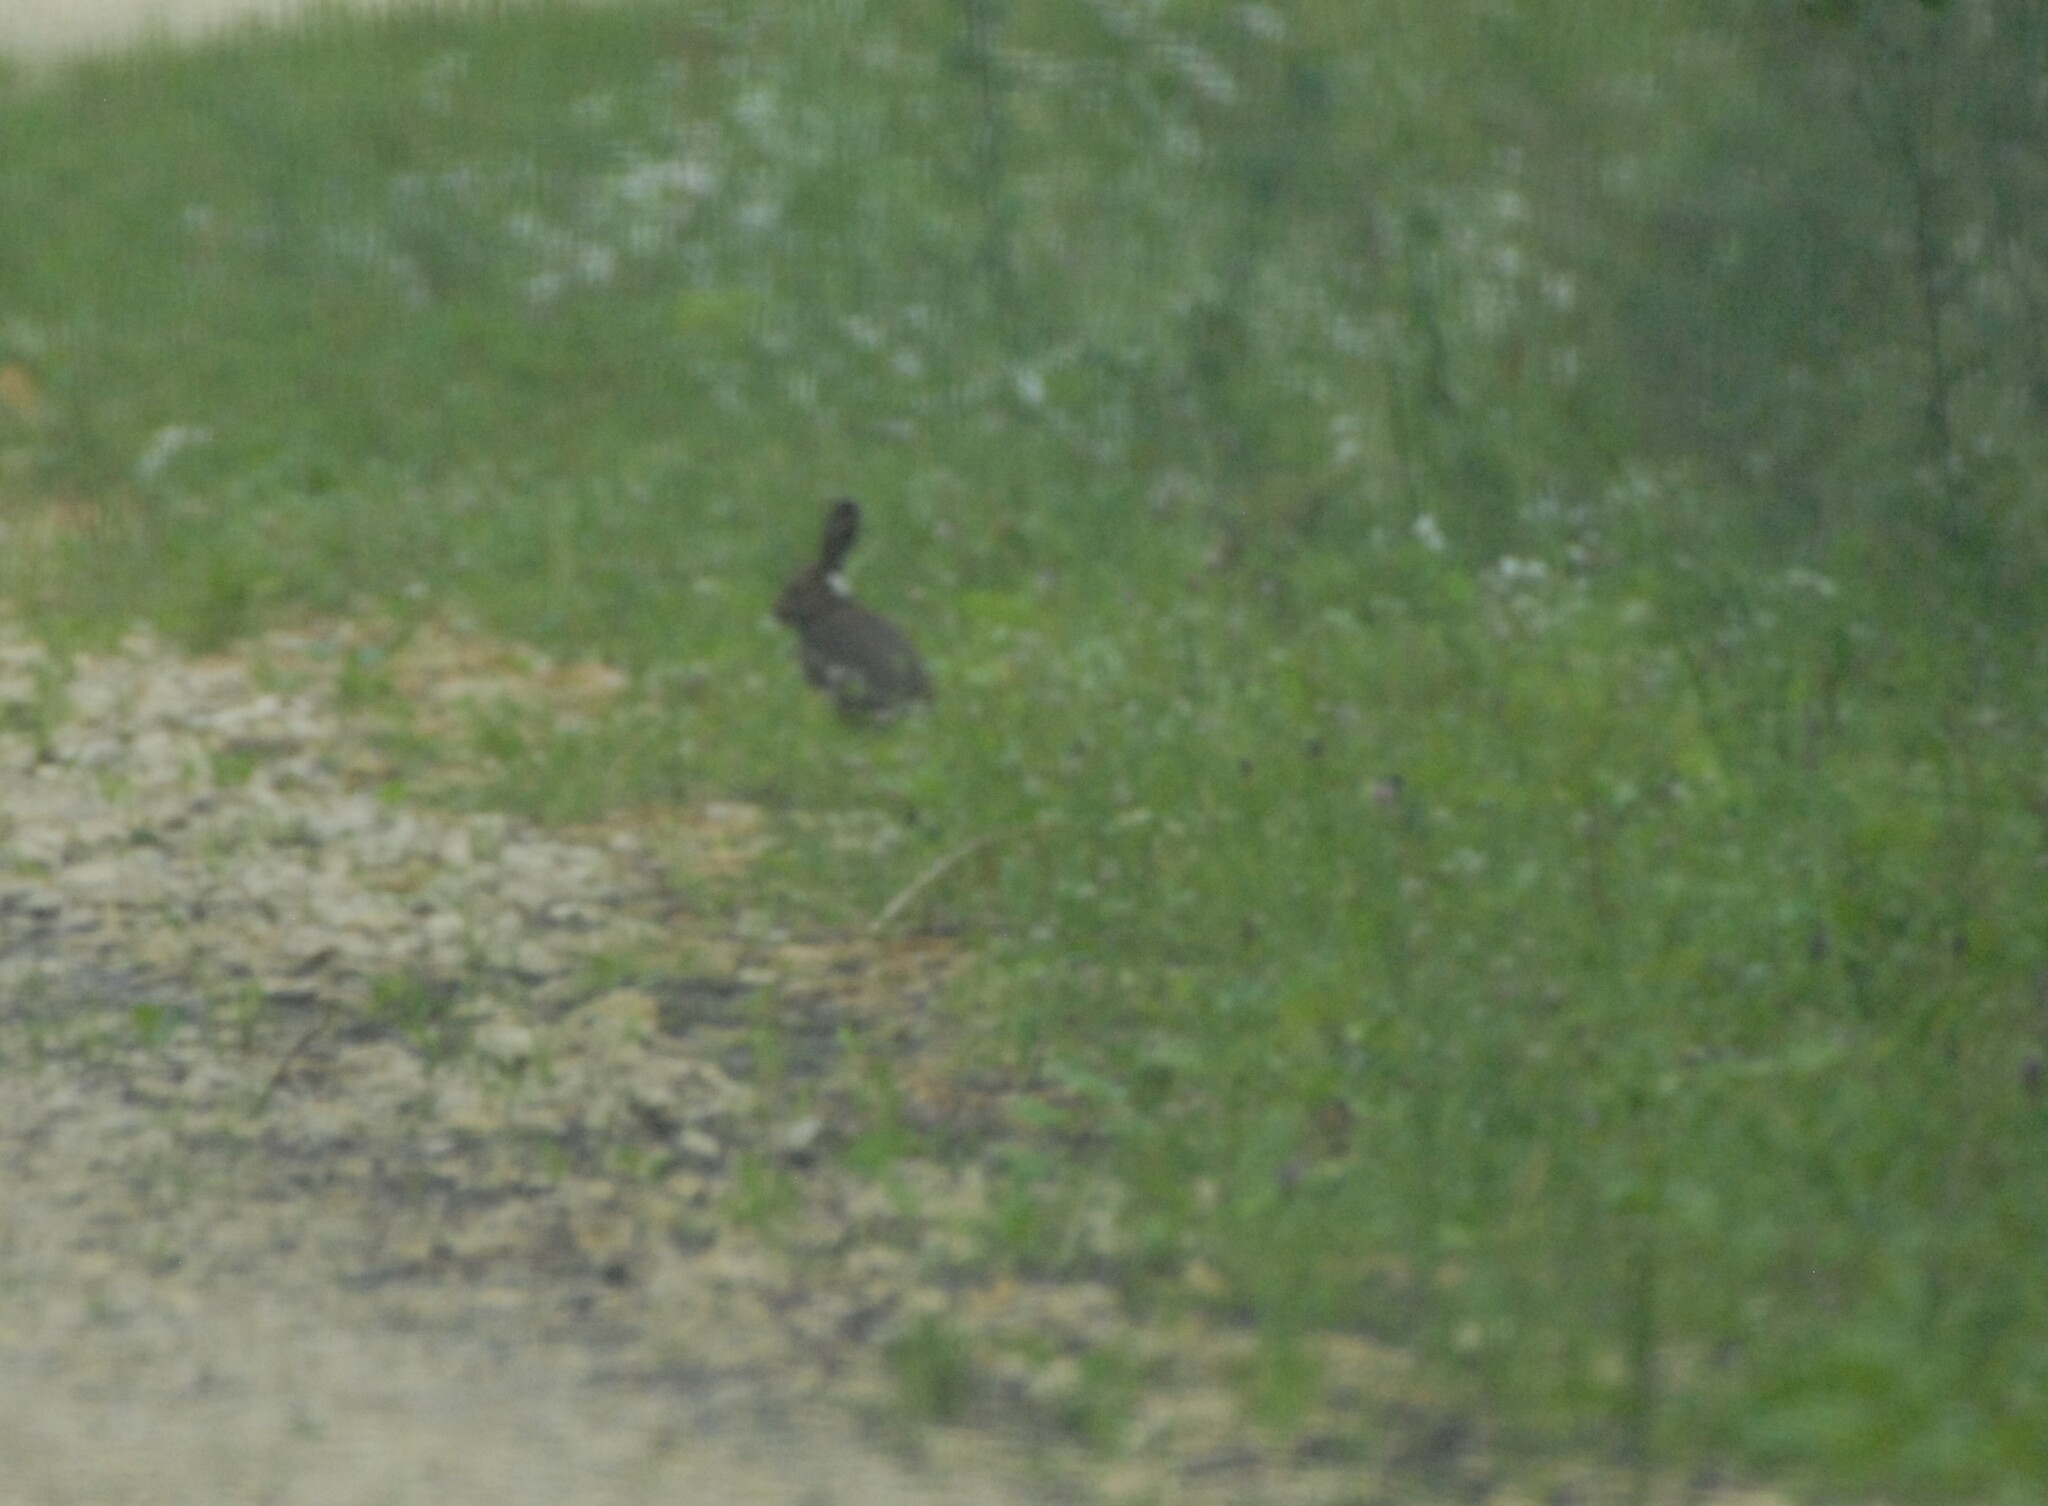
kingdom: Animalia
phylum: Chordata
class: Mammalia
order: Lagomorpha
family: Leporidae
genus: Lepus
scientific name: Lepus timidus
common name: Mountain hare
